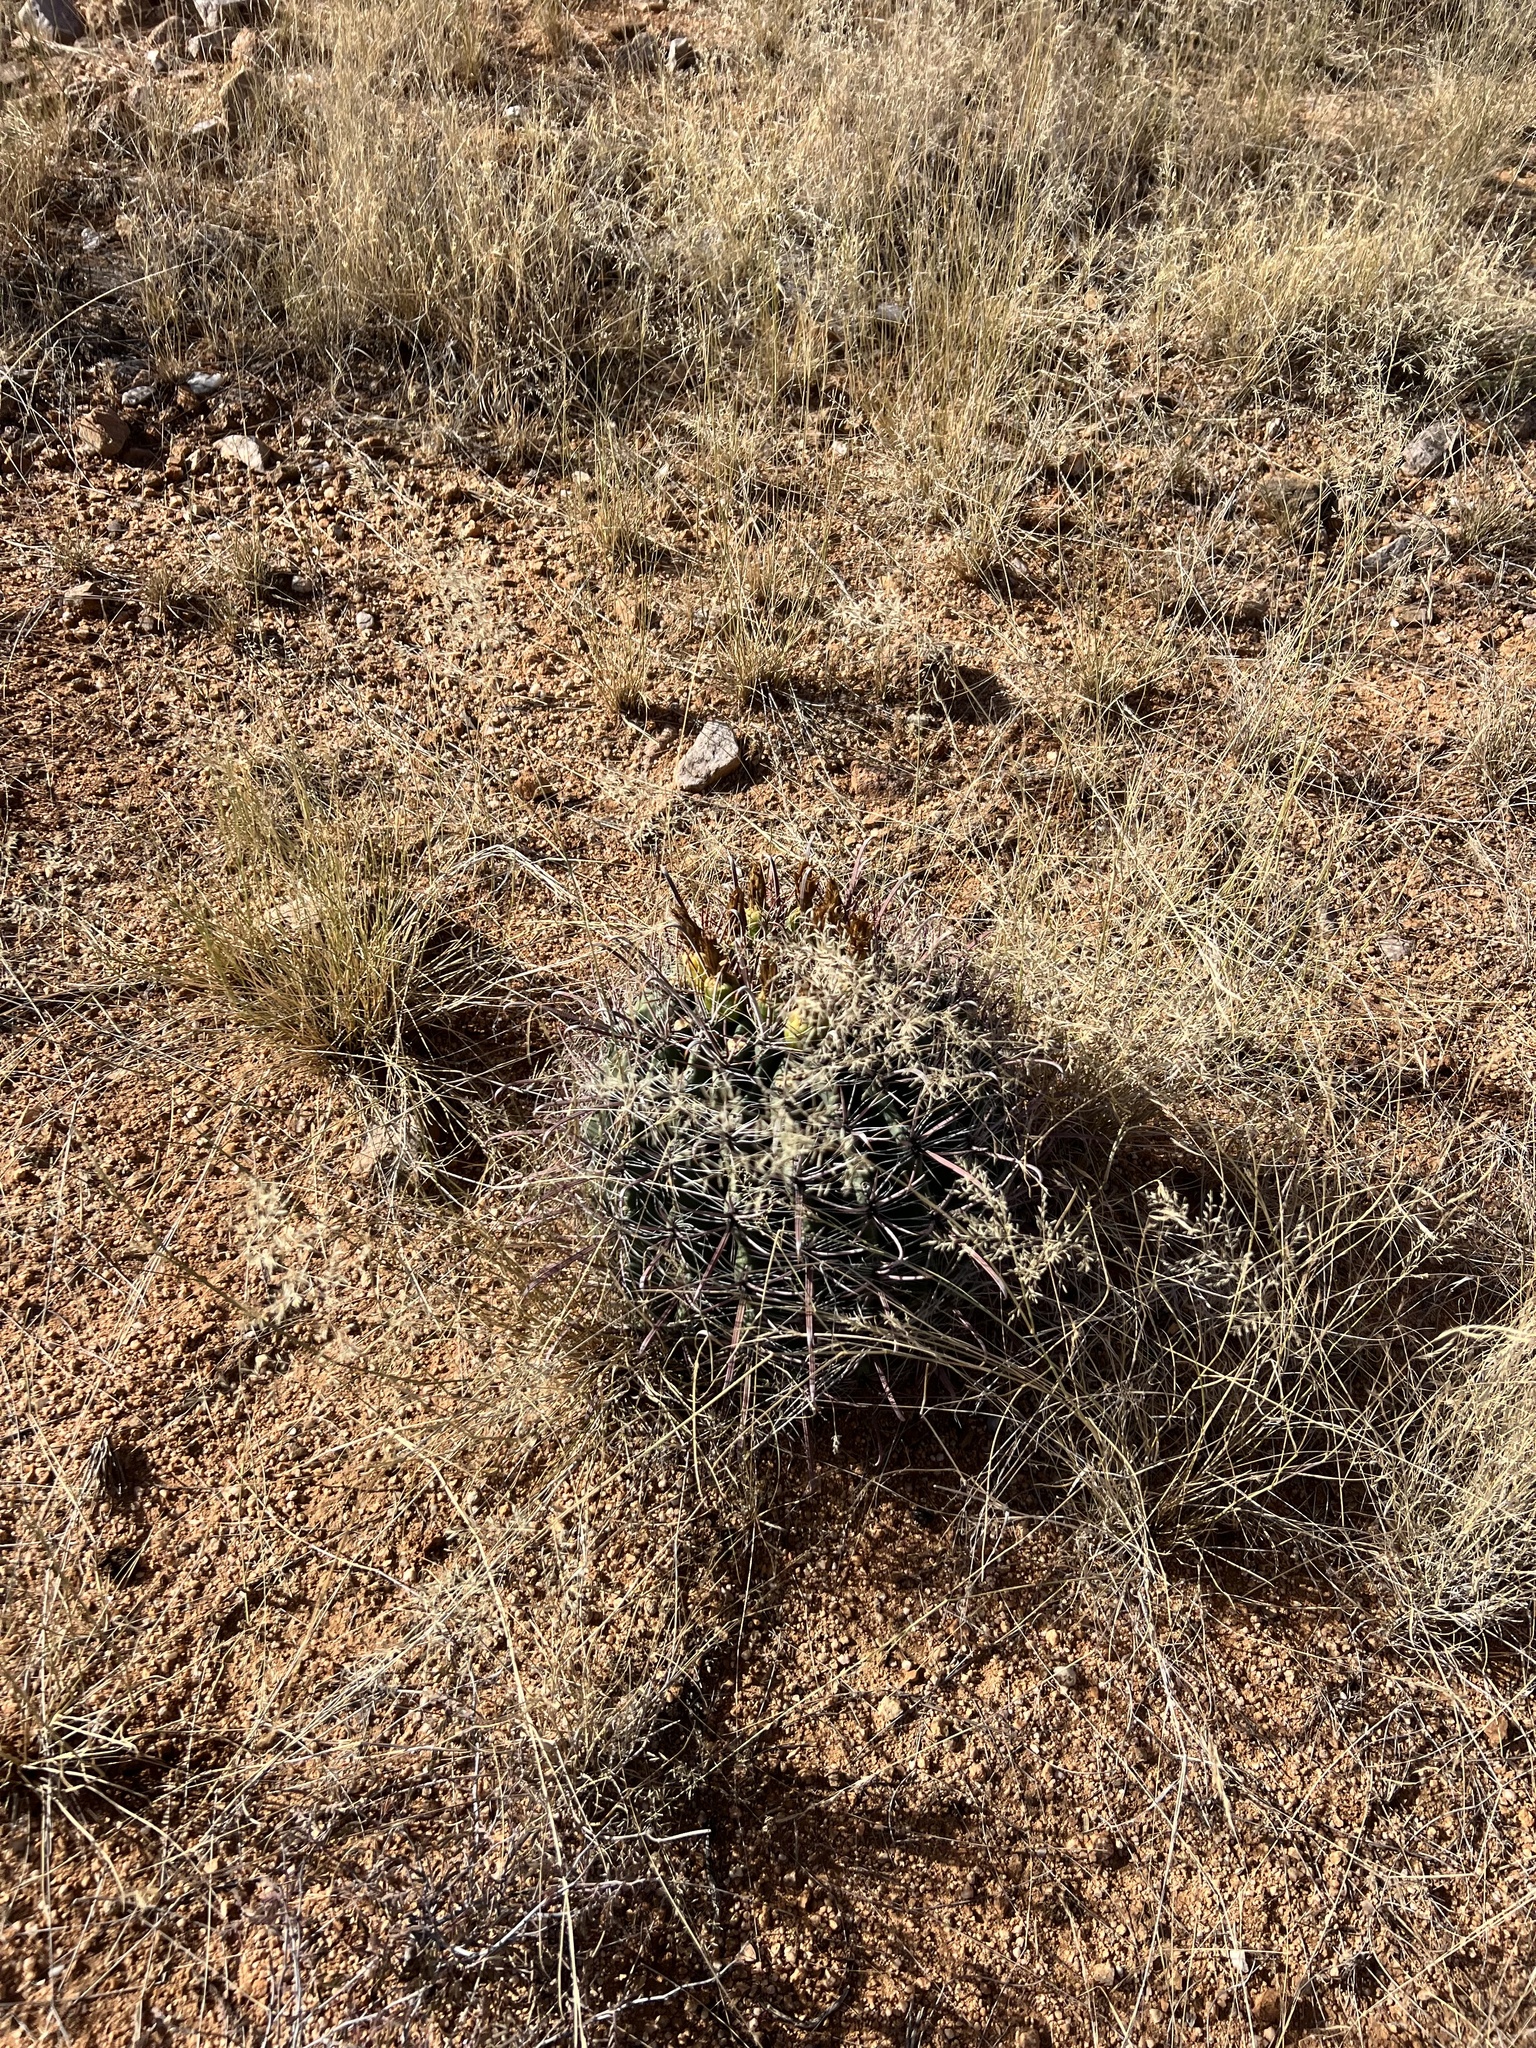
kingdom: Plantae
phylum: Tracheophyta
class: Magnoliopsida
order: Caryophyllales
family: Cactaceae
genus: Ferocactus
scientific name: Ferocactus wislizeni
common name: Candy barrel cactus
